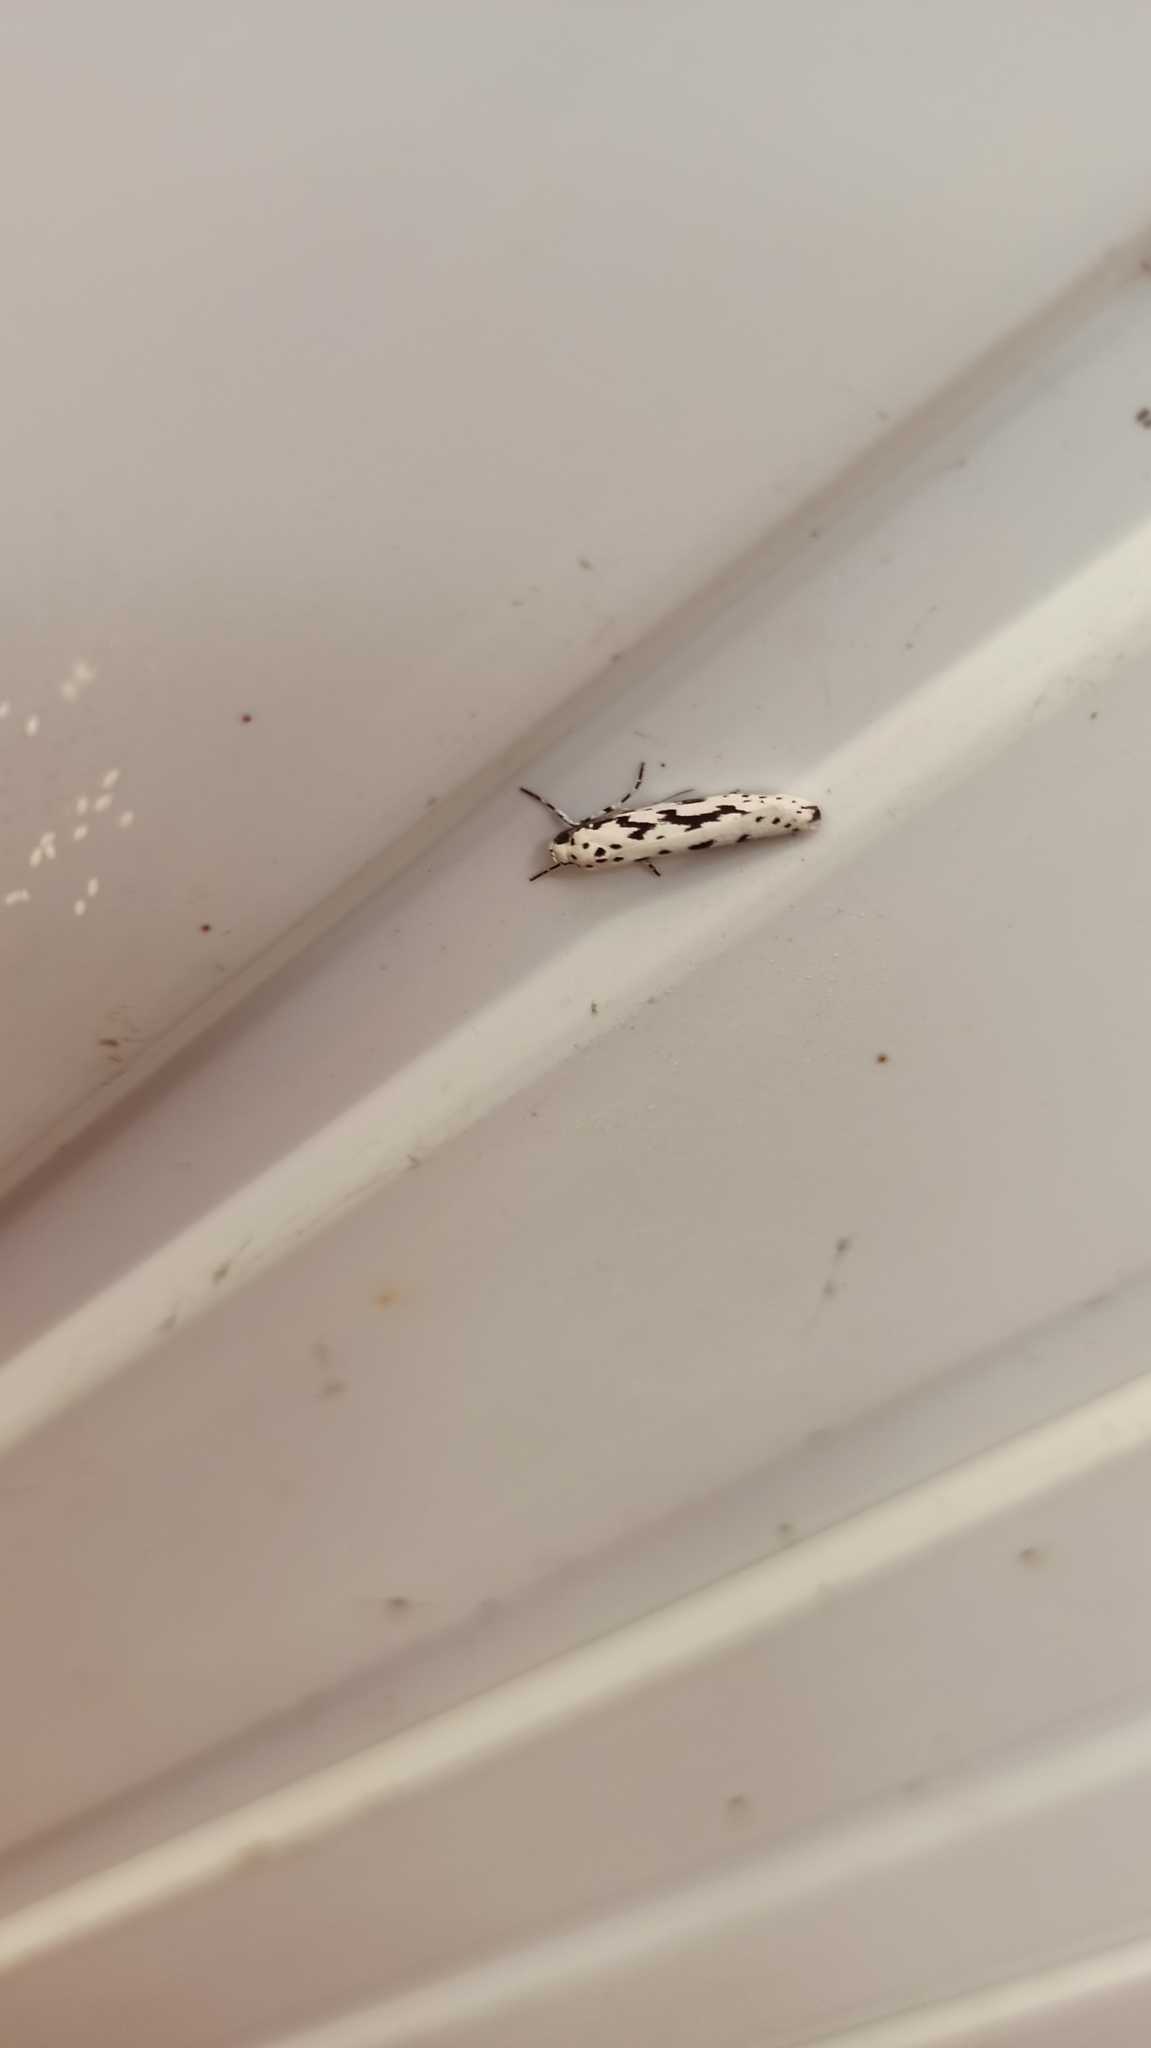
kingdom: Animalia
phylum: Arthropoda
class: Insecta
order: Lepidoptera
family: Ethmiidae
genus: Ethmia
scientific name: Ethmia candidella
